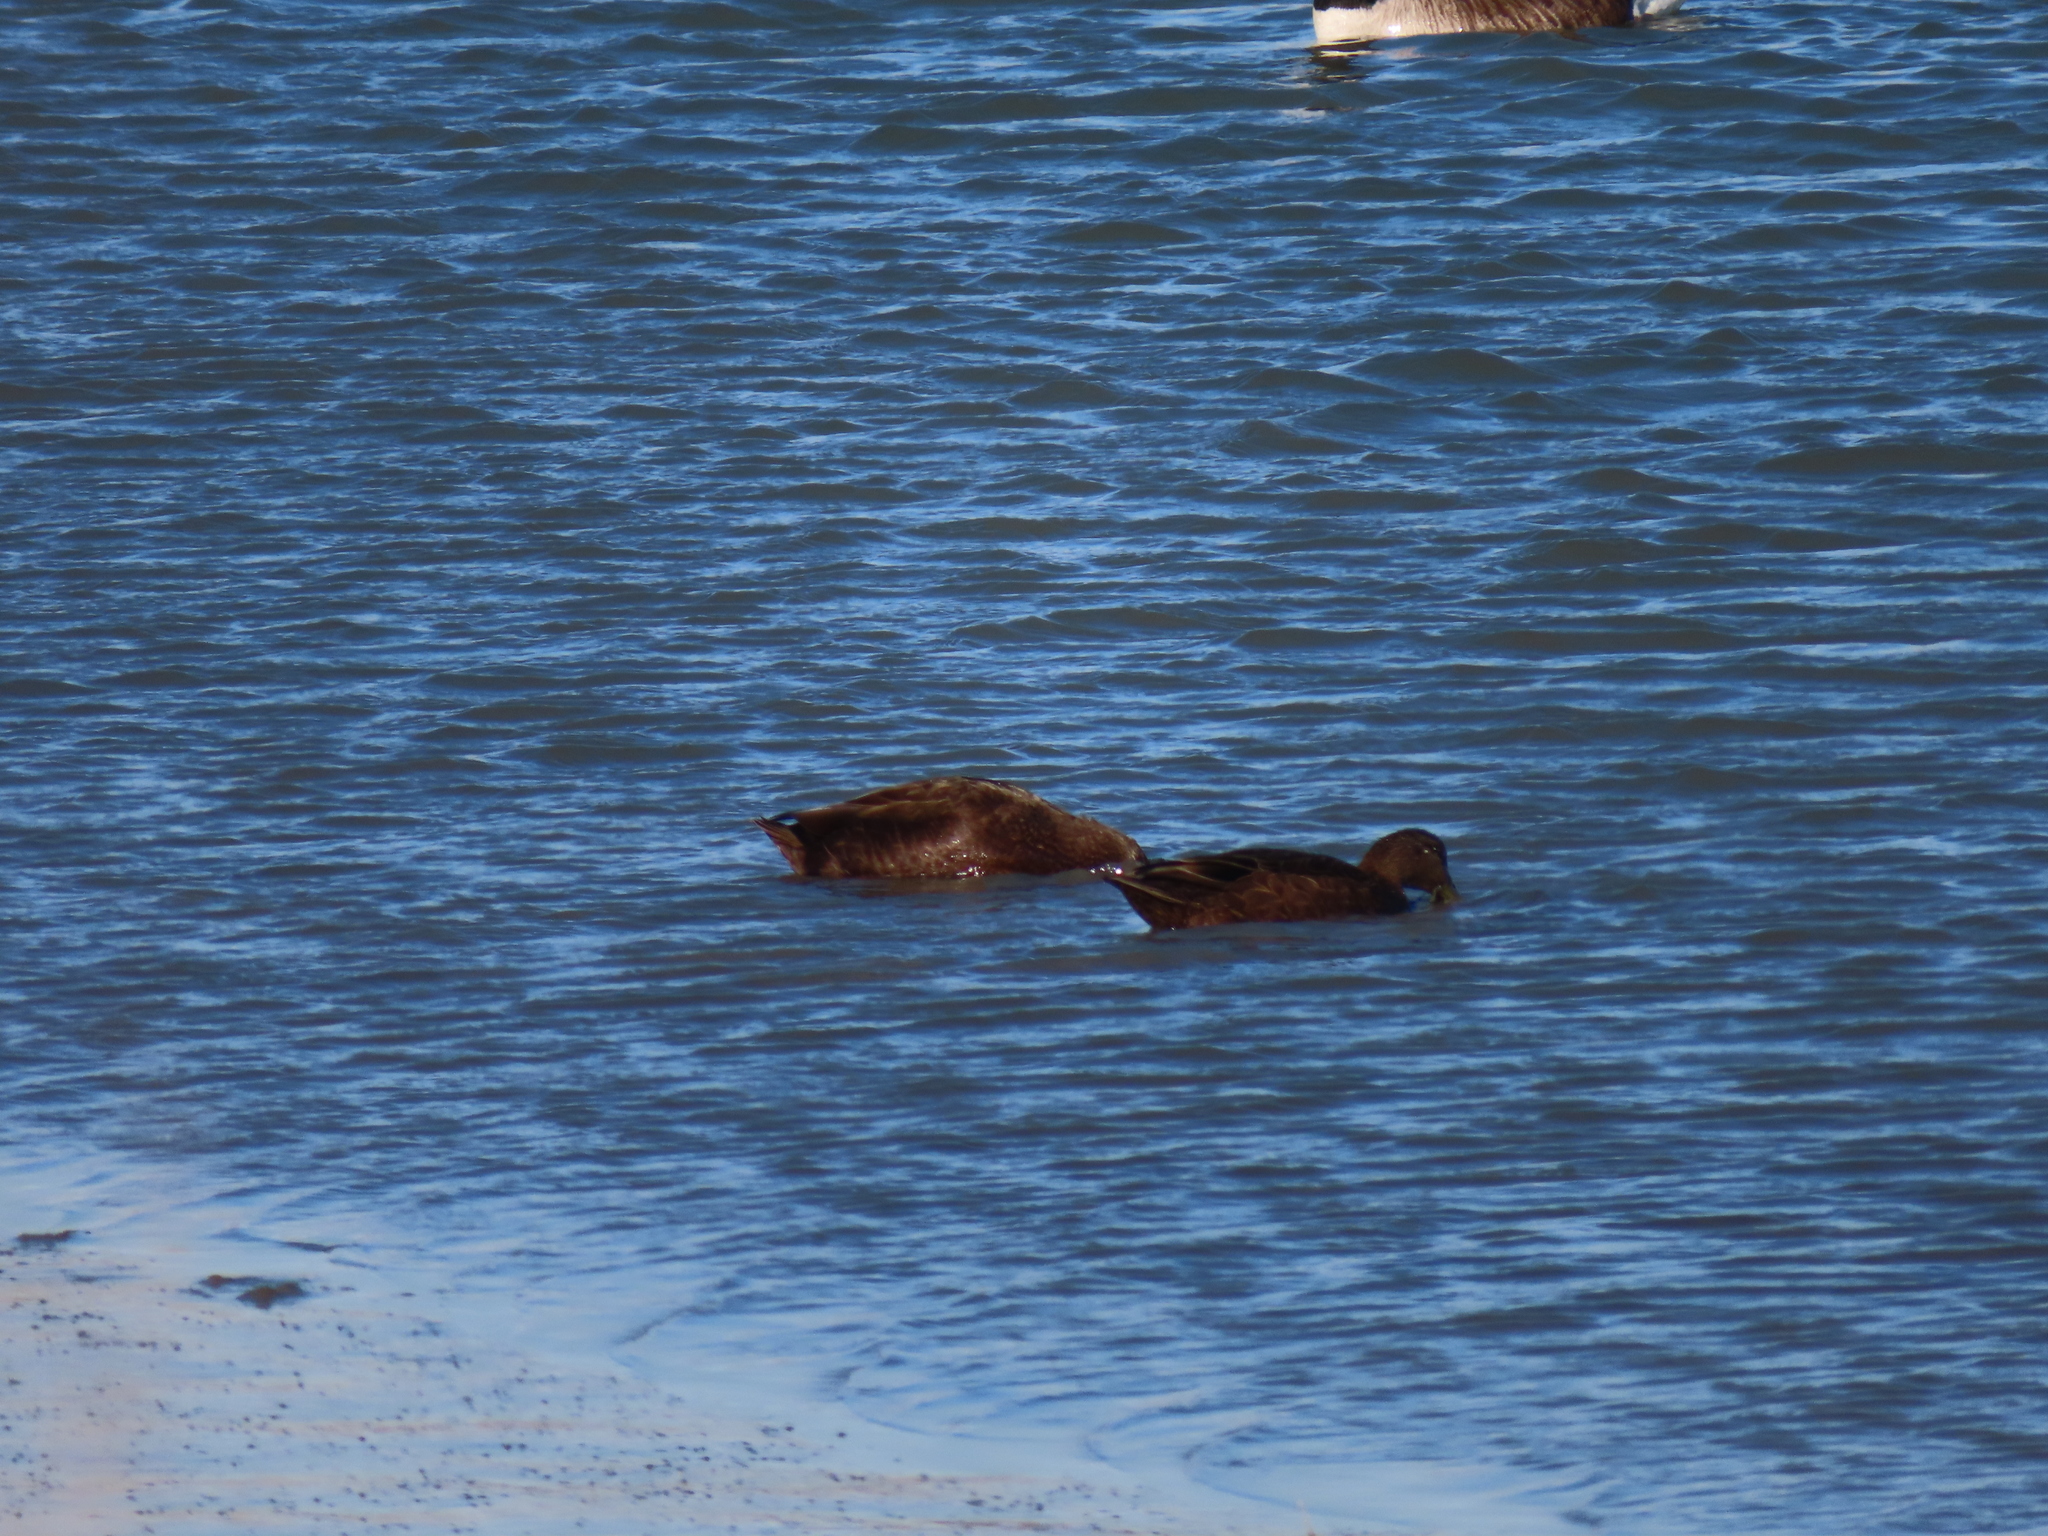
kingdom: Animalia
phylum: Chordata
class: Aves
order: Anseriformes
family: Anatidae
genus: Anas
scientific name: Anas rubripes
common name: American black duck
